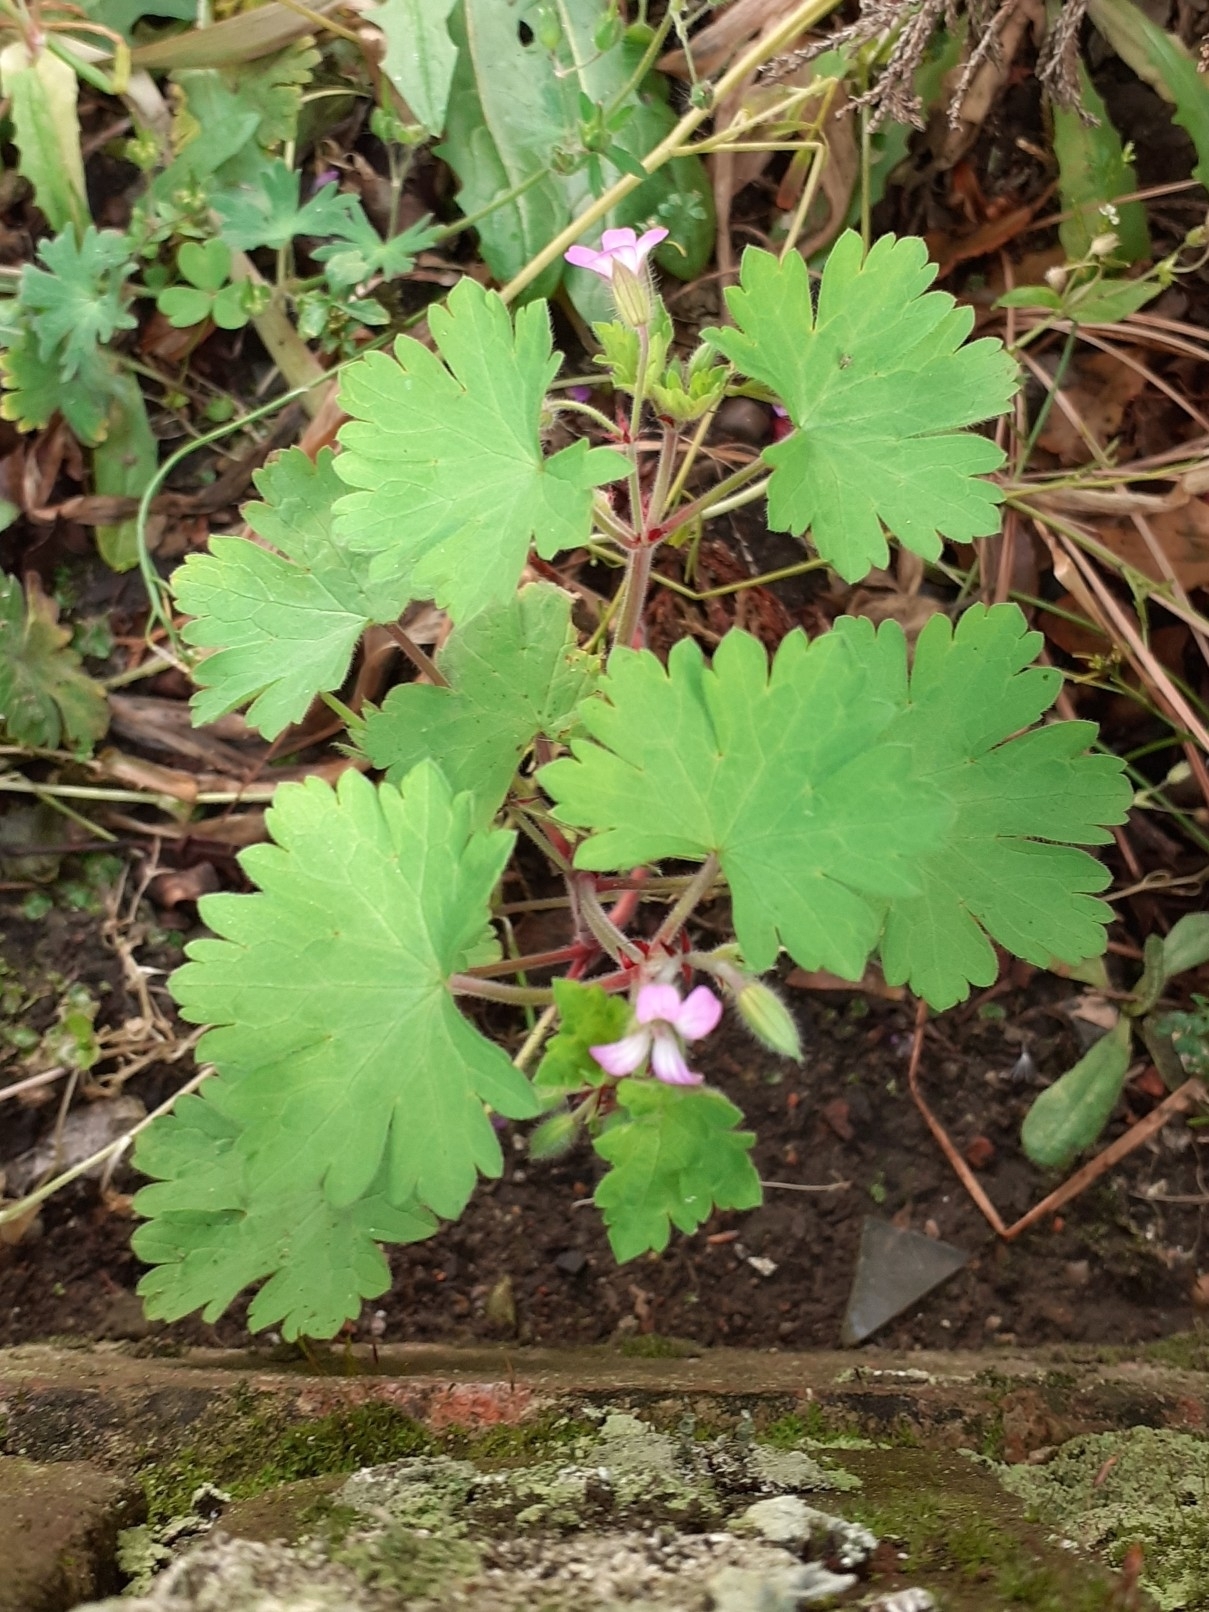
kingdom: Plantae
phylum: Tracheophyta
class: Magnoliopsida
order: Geraniales
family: Geraniaceae
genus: Geranium
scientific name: Geranium rotundifolium
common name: Round-leaved crane's-bill
